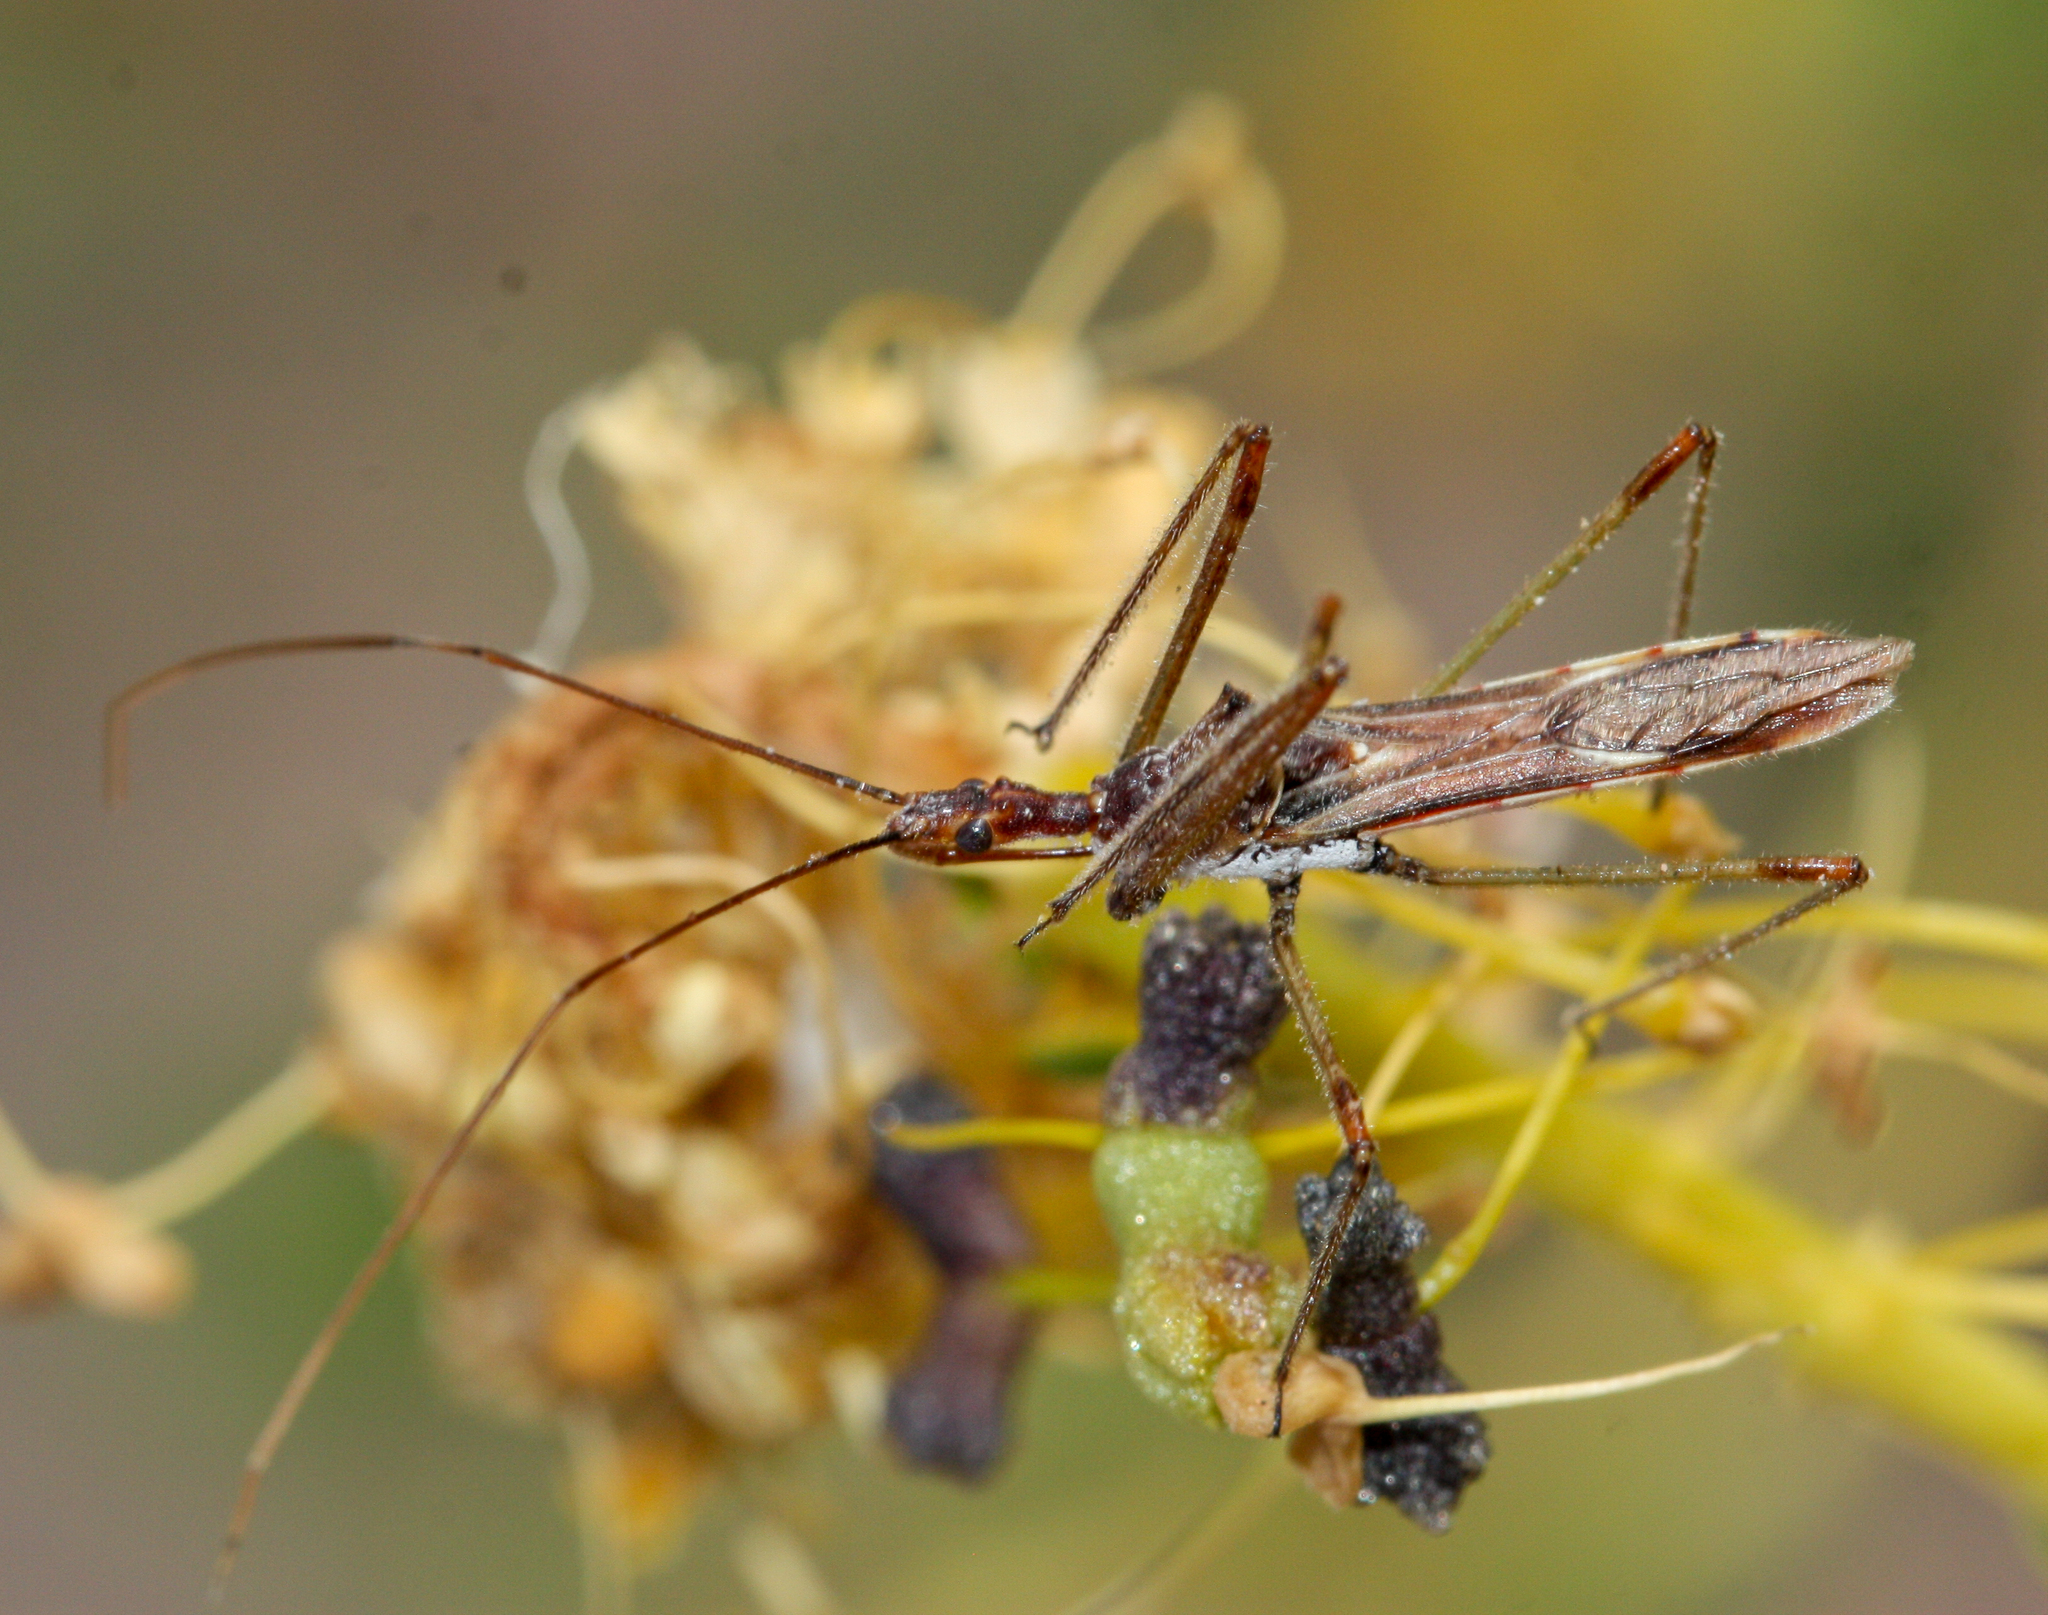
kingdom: Animalia
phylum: Arthropoda
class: Insecta
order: Hemiptera
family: Reduviidae
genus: Zelus
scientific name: Zelus tetracanthus
